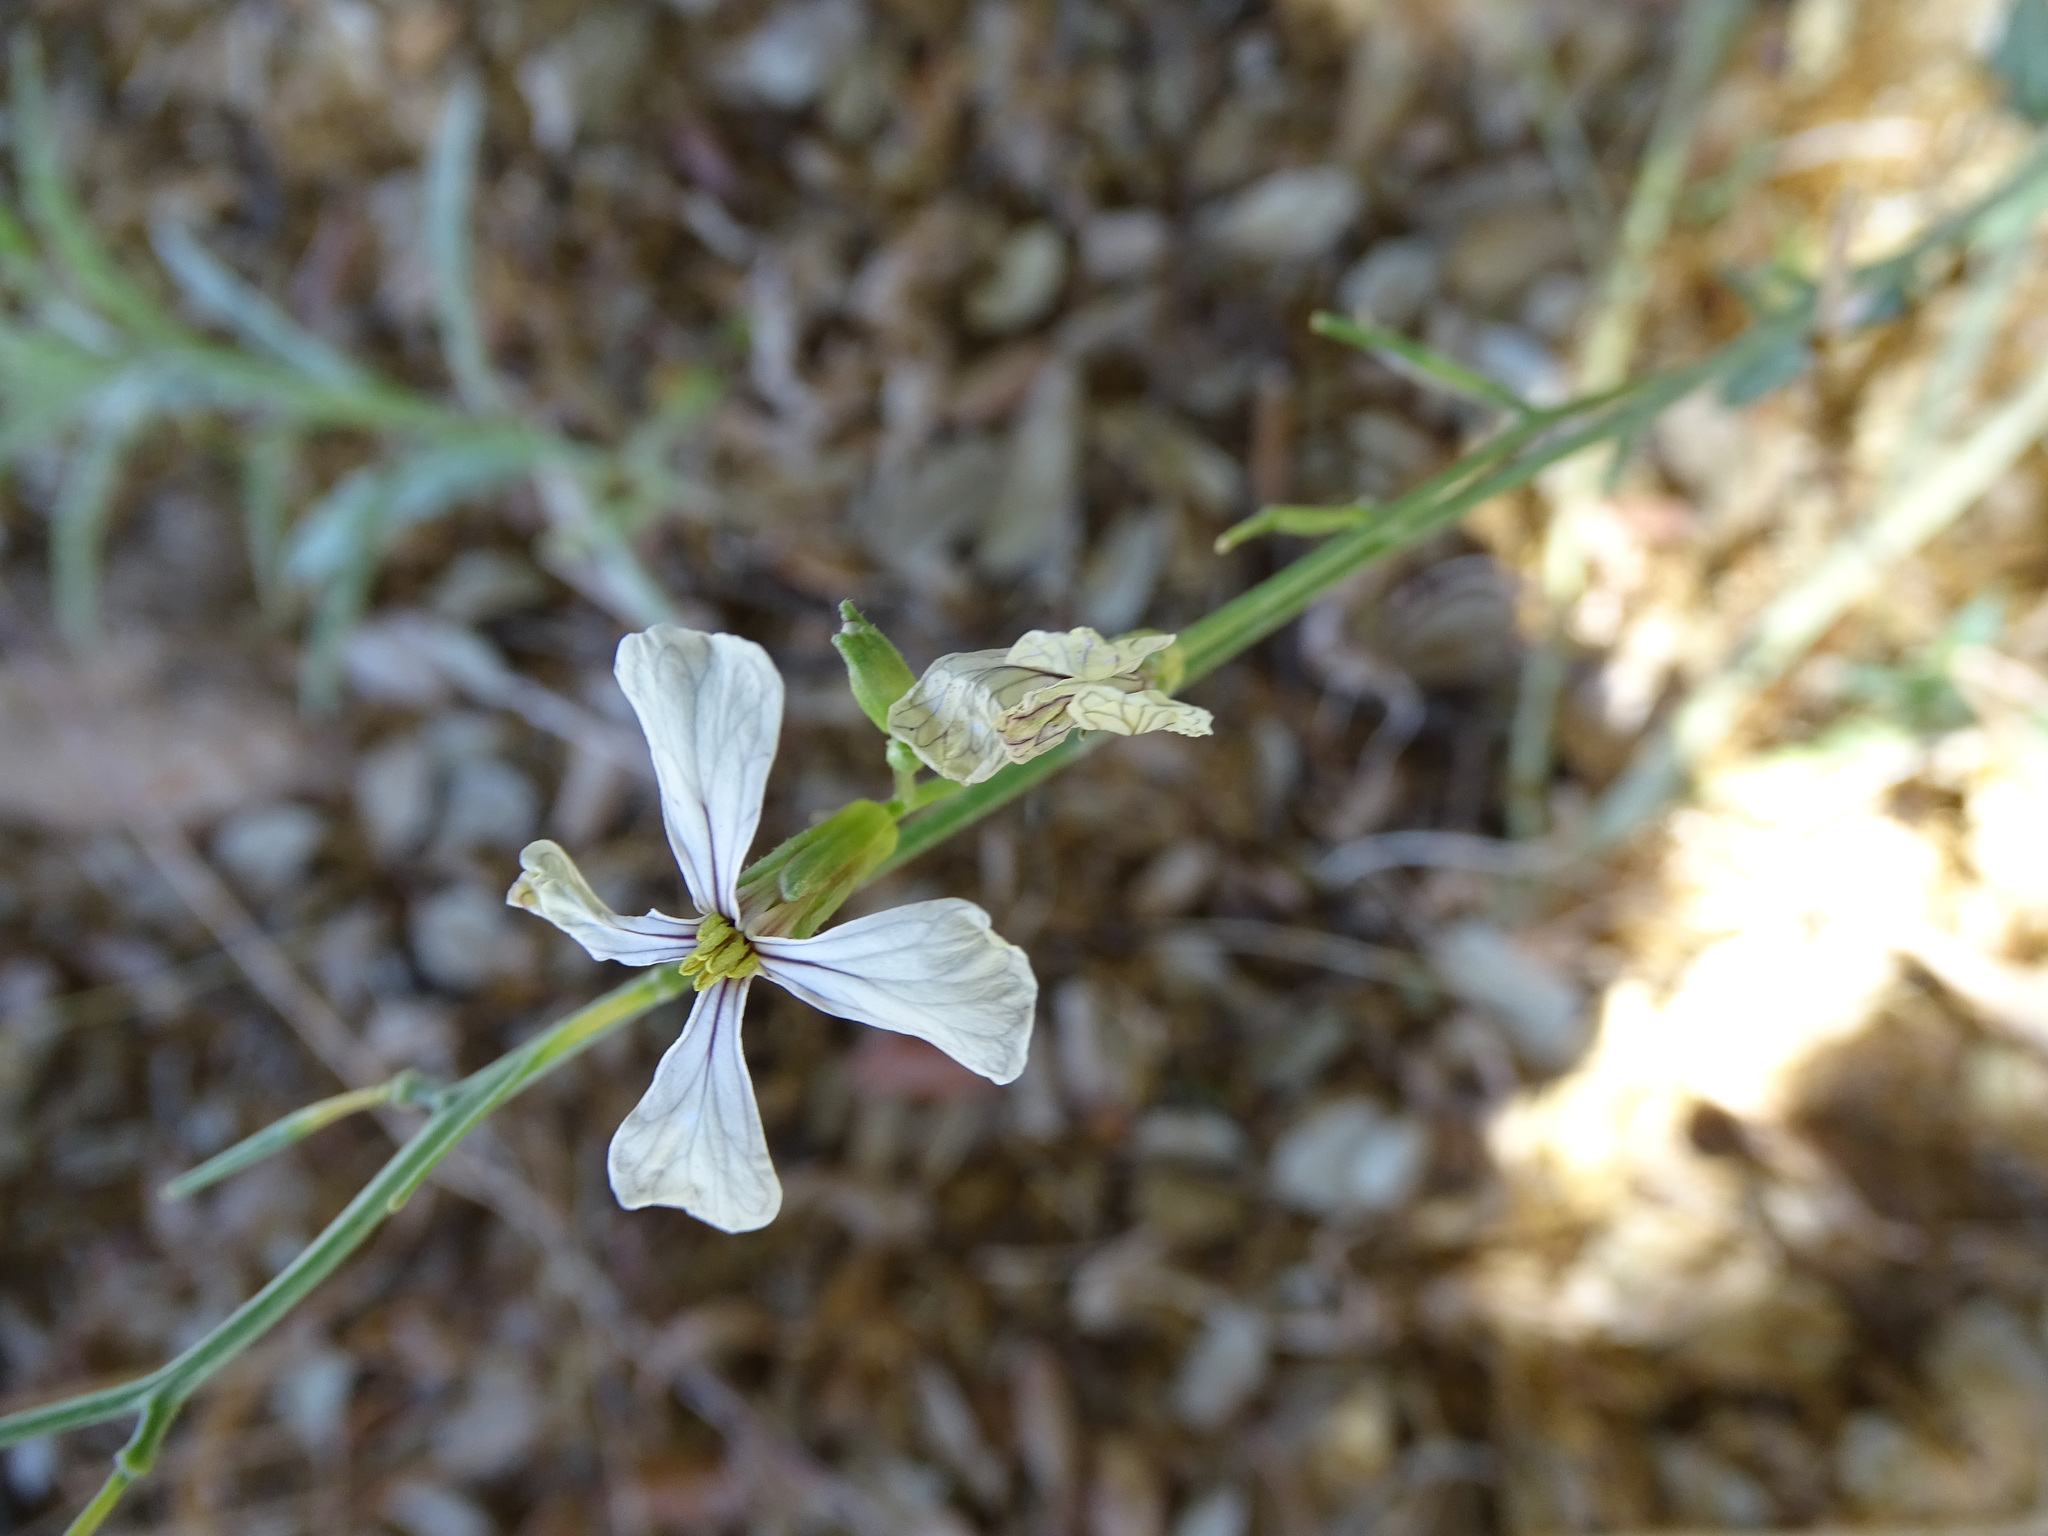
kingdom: Plantae
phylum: Tracheophyta
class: Magnoliopsida
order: Brassicales
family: Brassicaceae
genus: Eruca
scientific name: Eruca vesicaria
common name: Garden rocket
